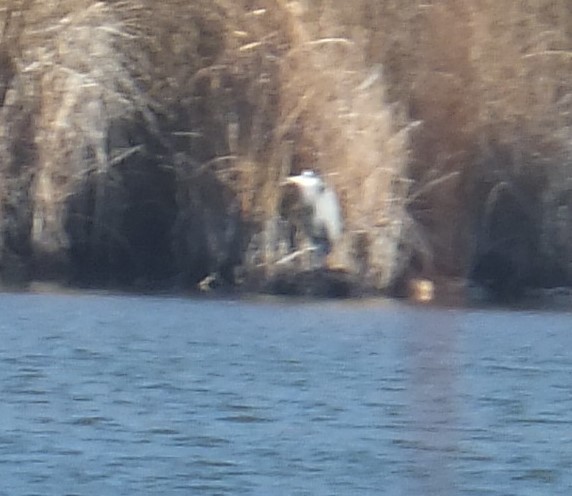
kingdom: Animalia
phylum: Chordata
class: Aves
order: Pelecaniformes
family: Ardeidae
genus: Ardea
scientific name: Ardea herodias
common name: Great blue heron
